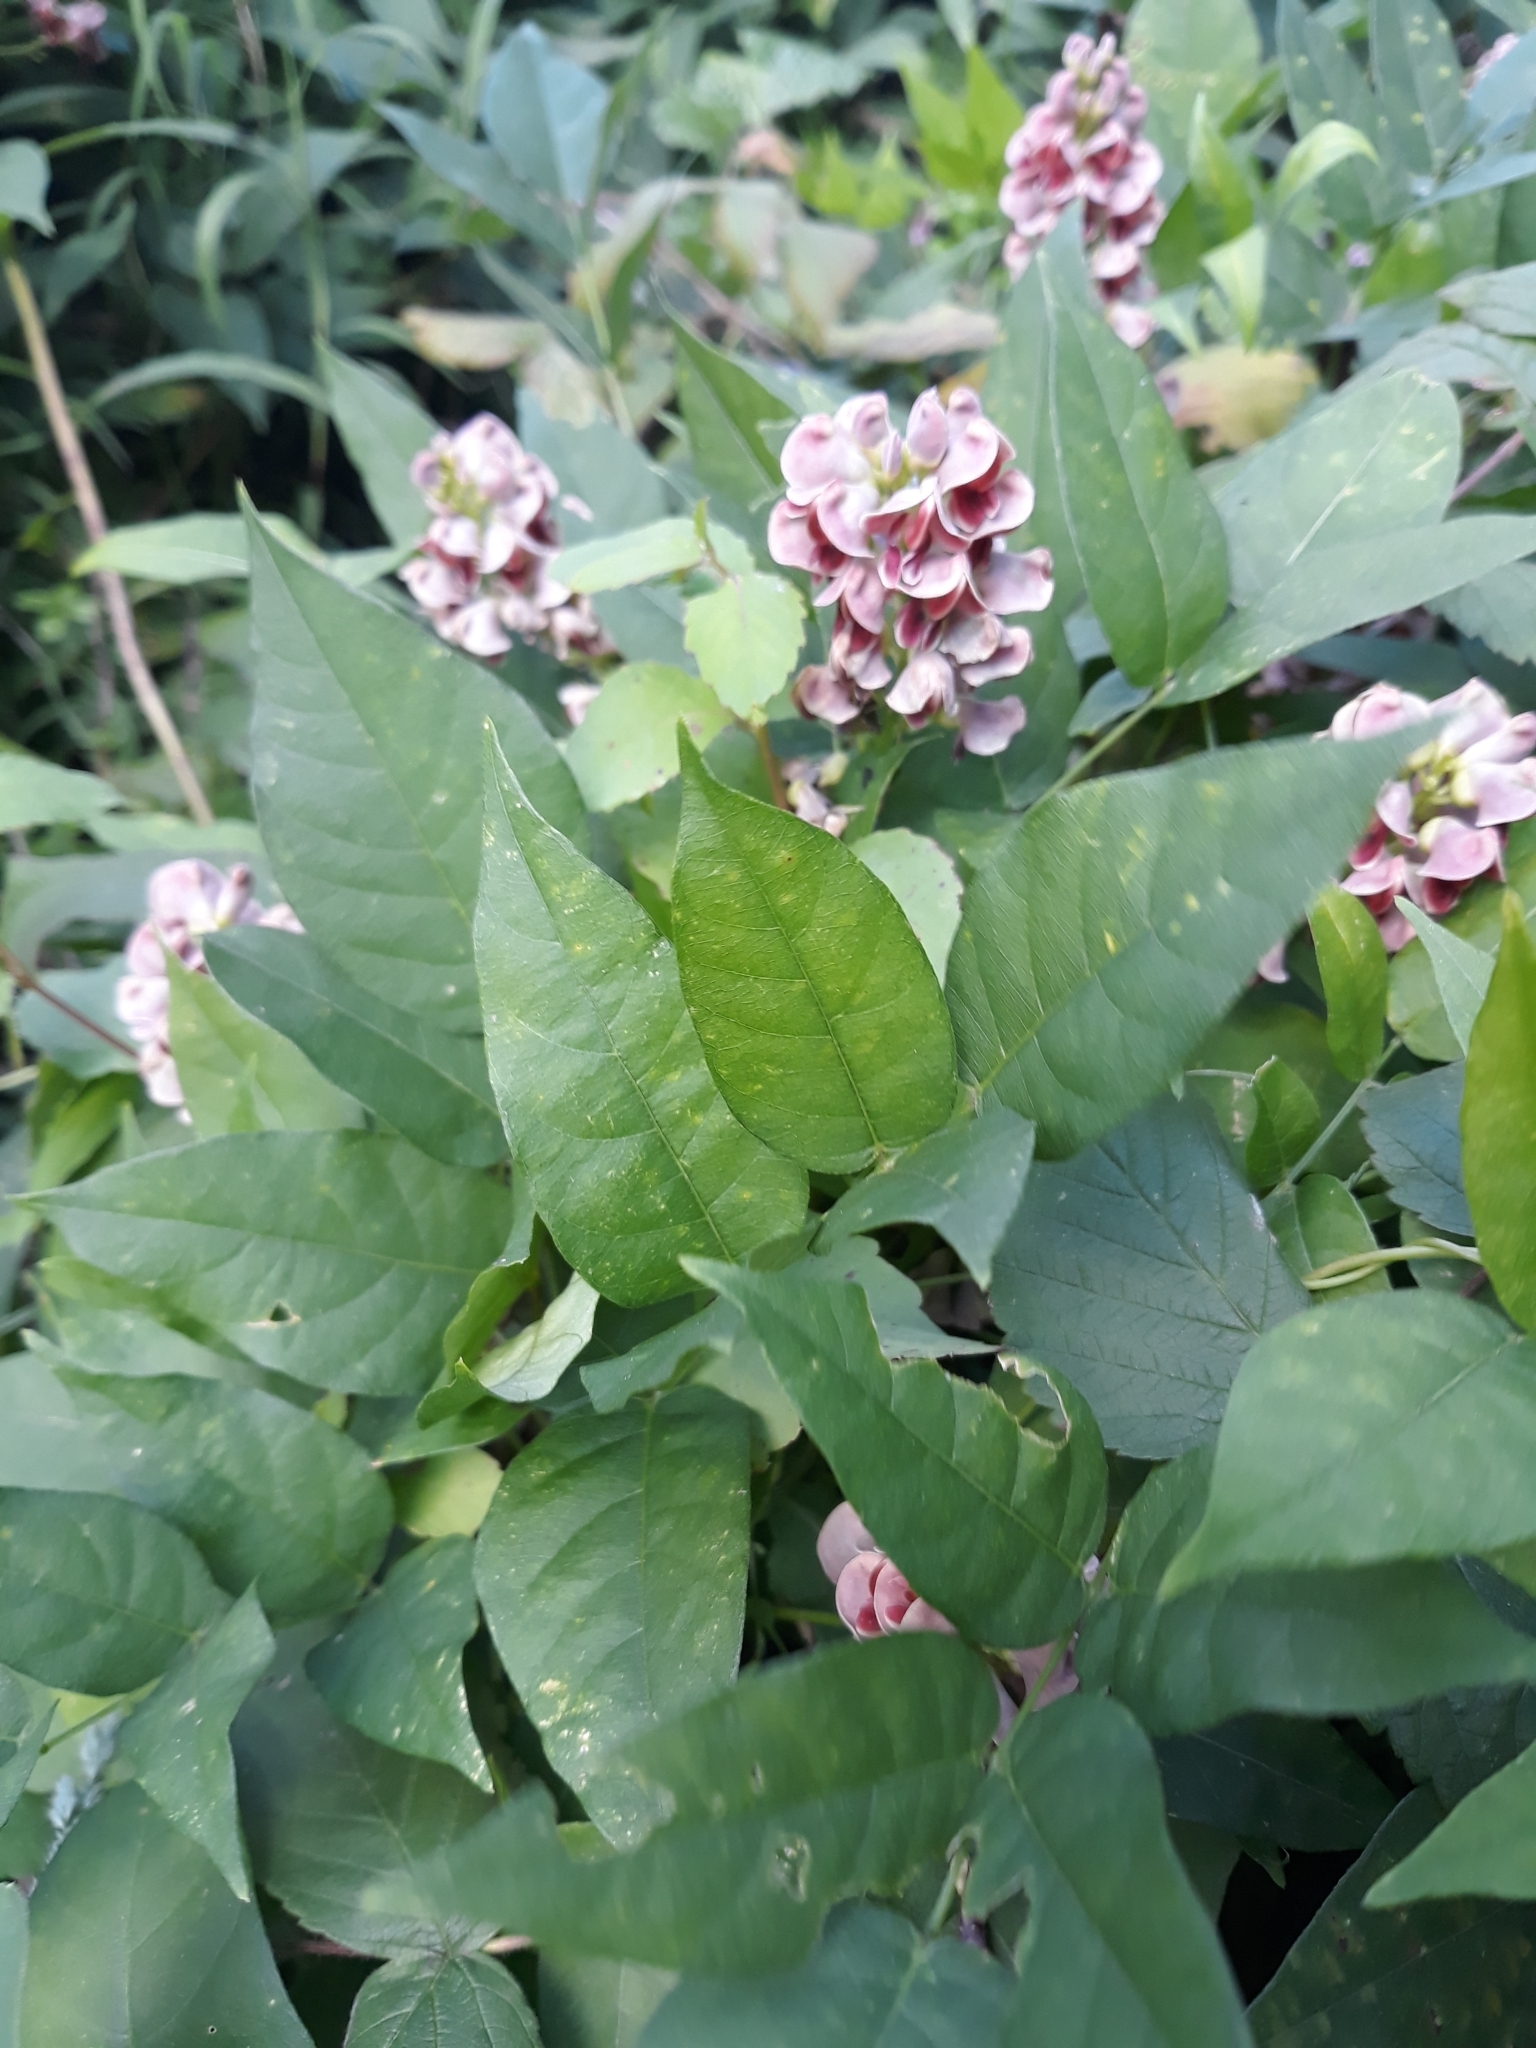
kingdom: Plantae
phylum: Tracheophyta
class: Magnoliopsida
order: Fabales
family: Fabaceae
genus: Apios
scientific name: Apios americana
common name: American potato-bean
